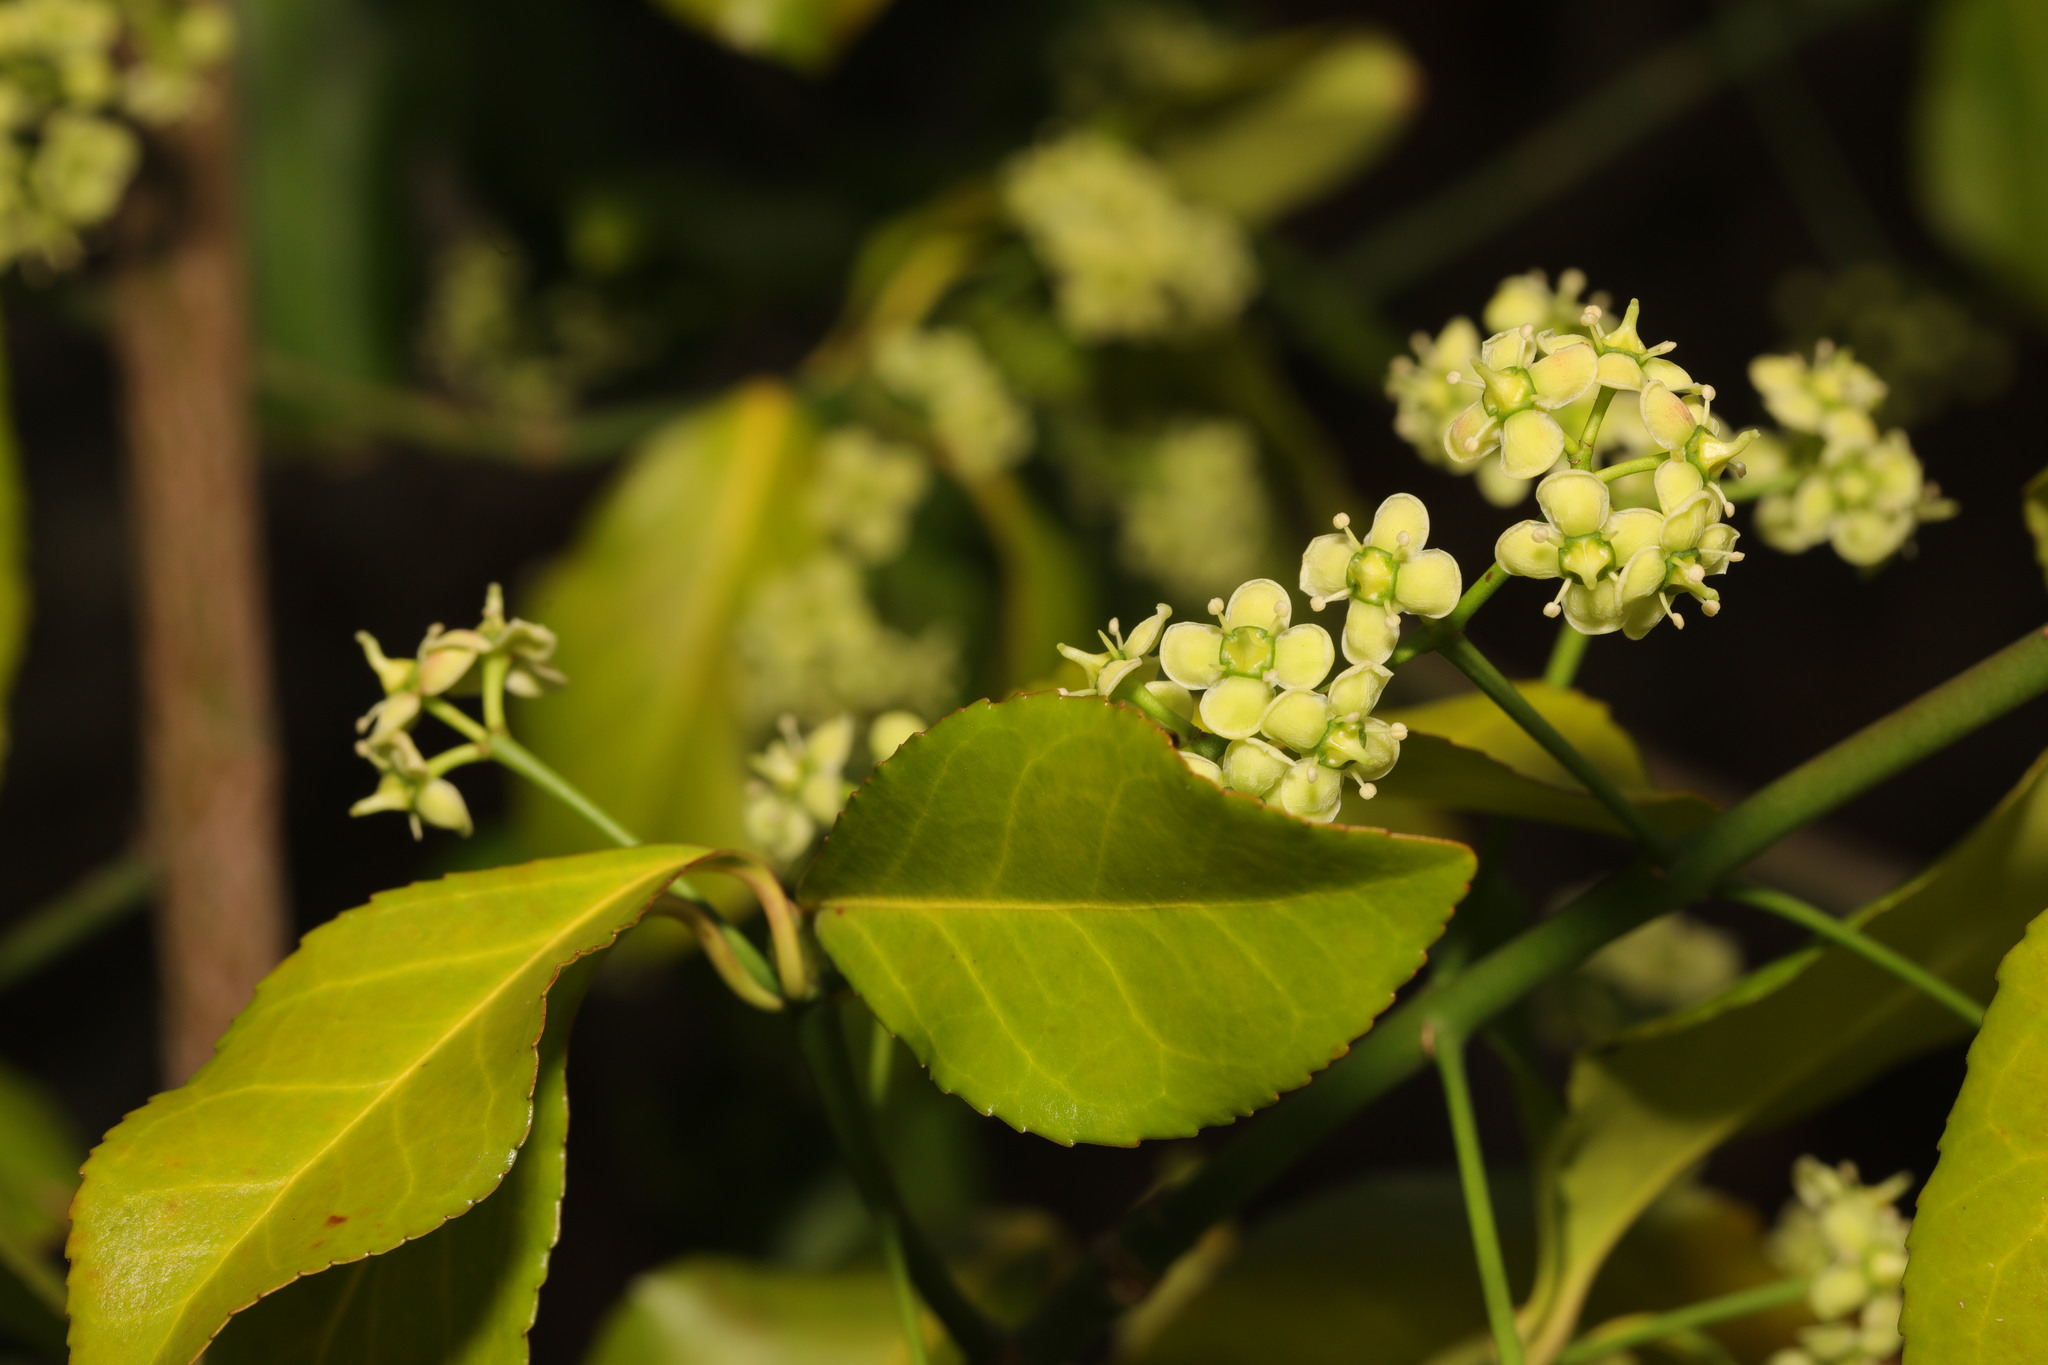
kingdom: Plantae
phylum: Tracheophyta
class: Magnoliopsida
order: Celastrales
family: Celastraceae
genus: Euonymus
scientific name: Euonymus japonicus
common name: Japanese spindletree
